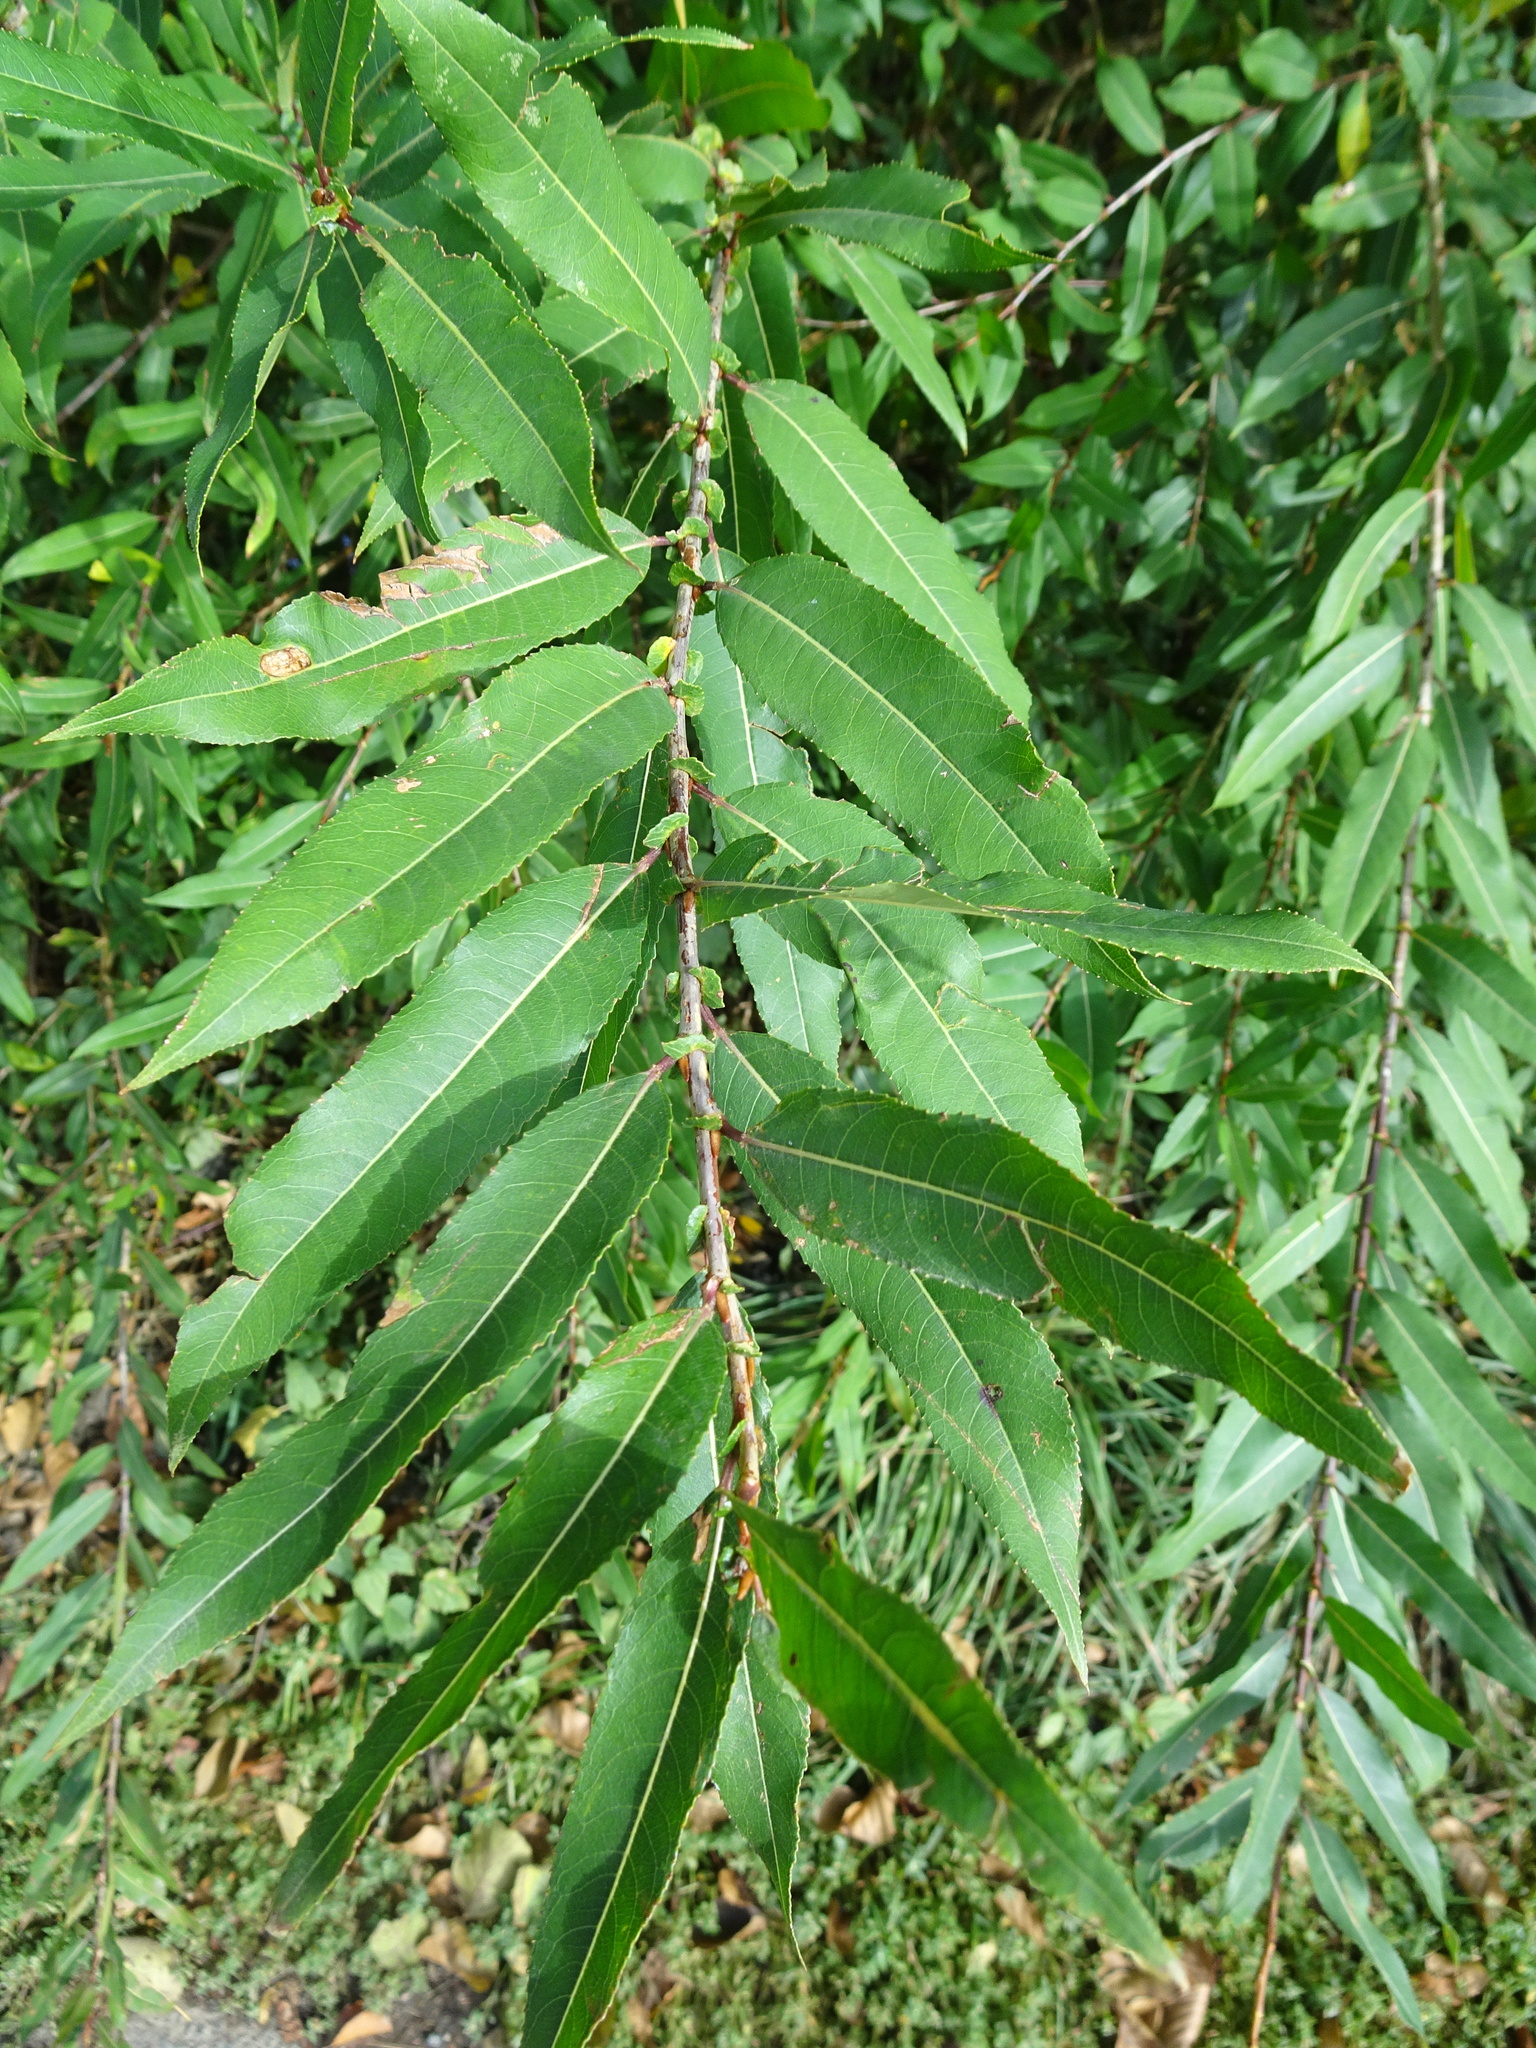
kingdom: Plantae
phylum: Tracheophyta
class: Magnoliopsida
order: Malpighiales
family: Salicaceae
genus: Salix
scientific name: Salix triandra
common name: Almond willow
